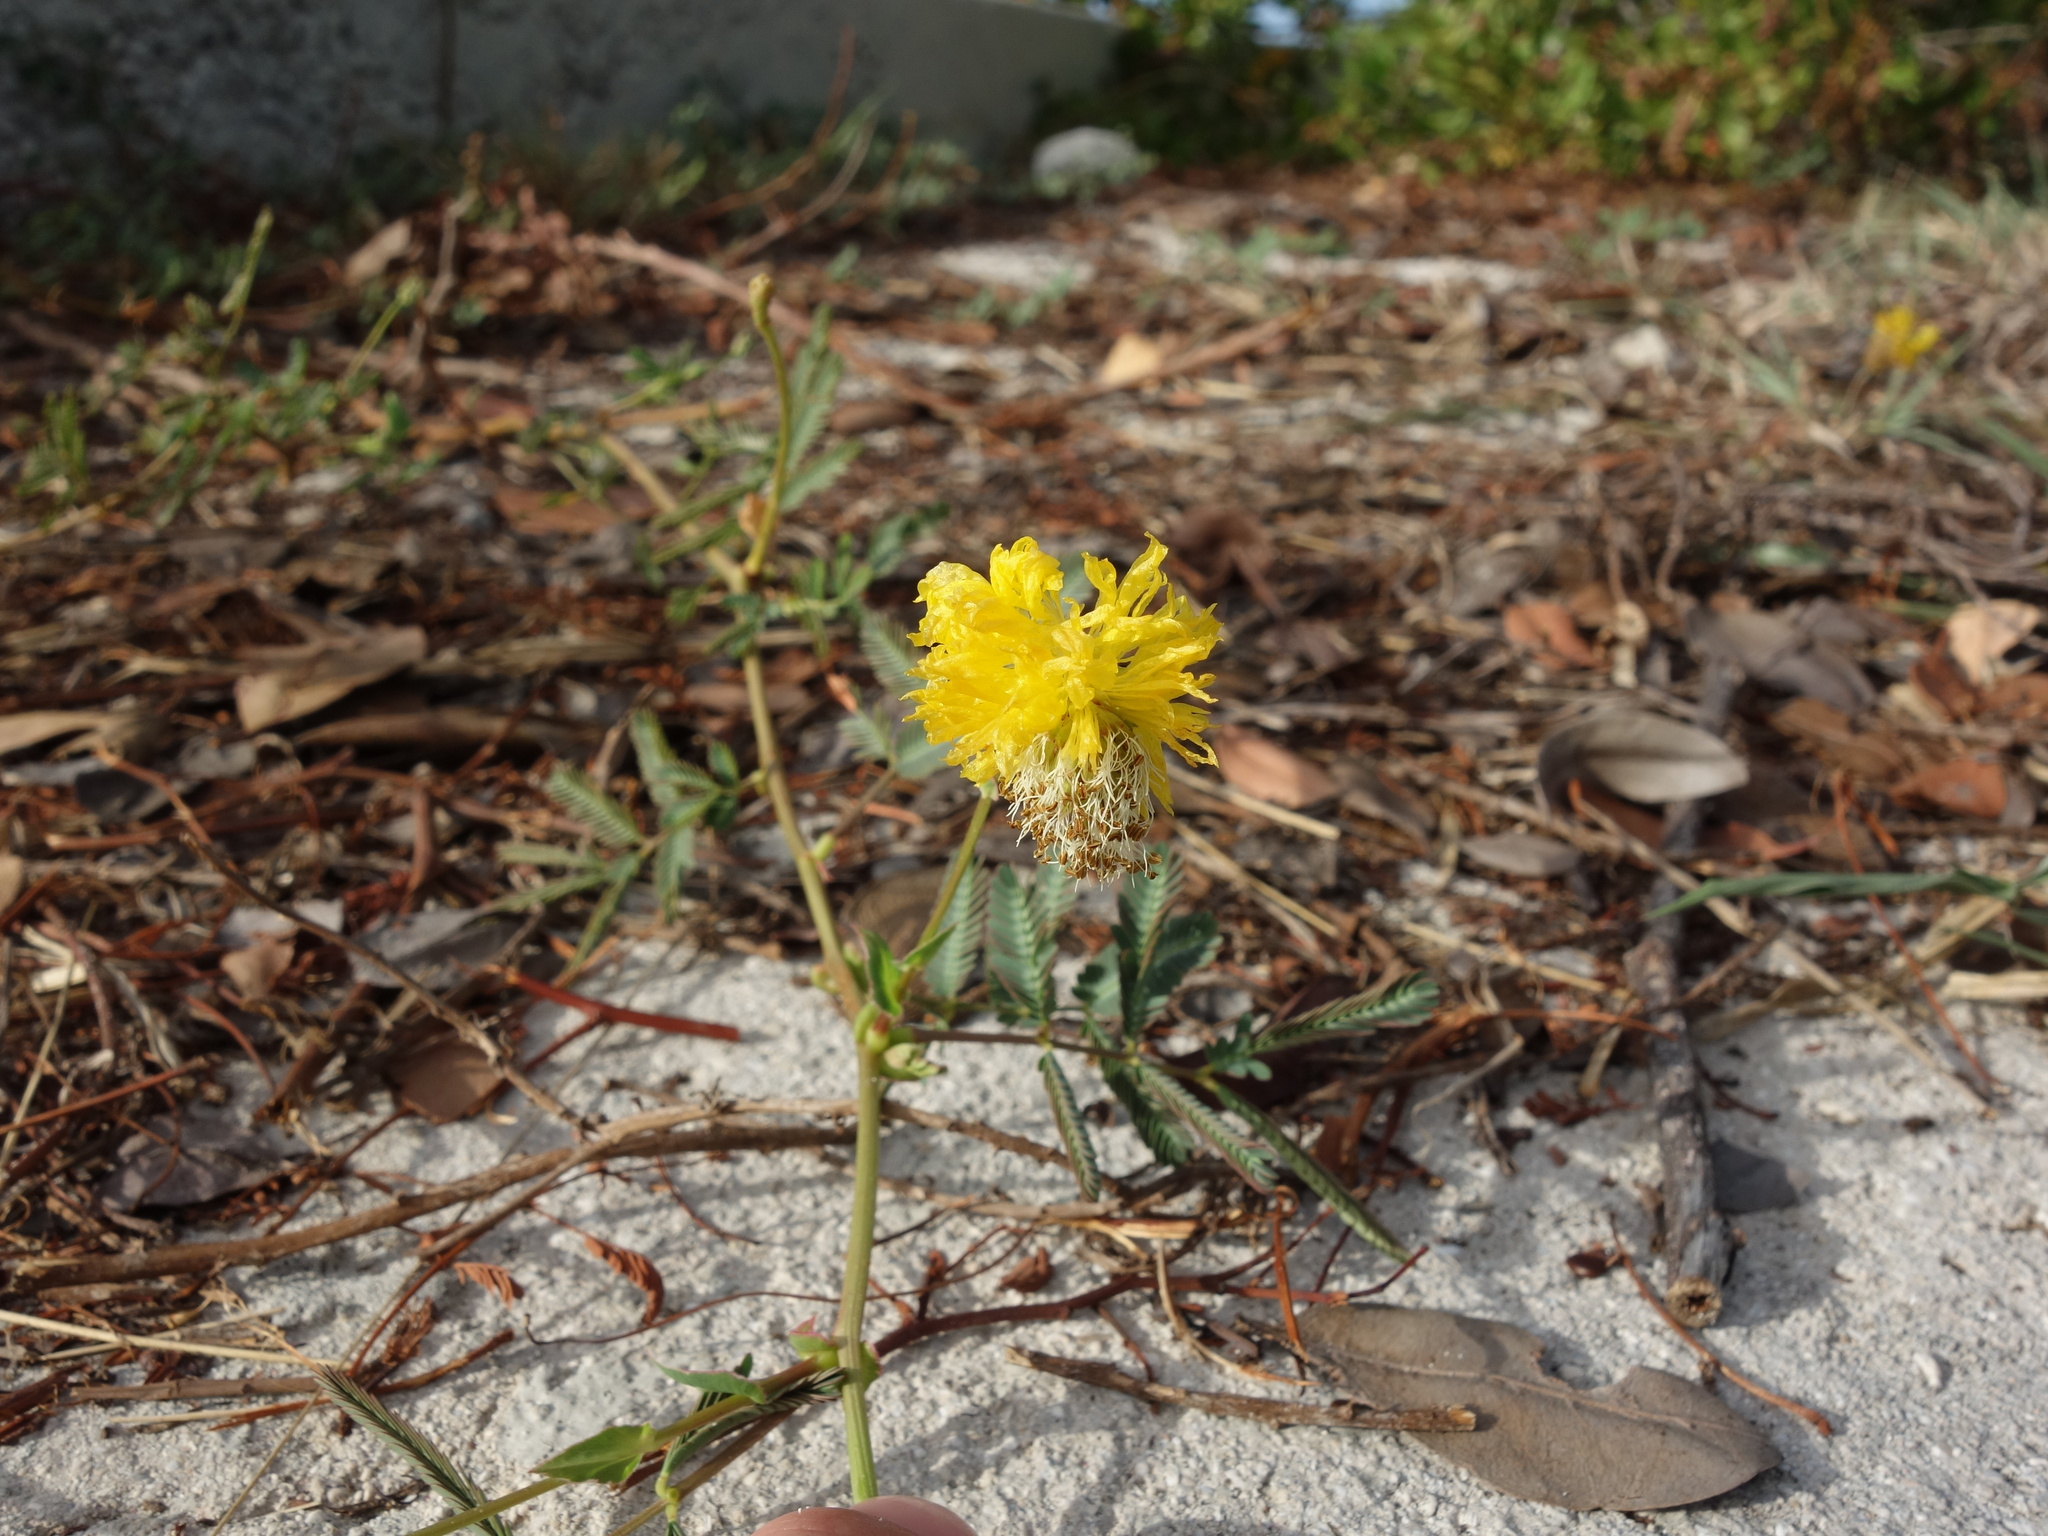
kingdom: Plantae
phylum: Tracheophyta
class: Magnoliopsida
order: Fabales
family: Fabaceae
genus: Neptunia
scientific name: Neptunia pubescens
